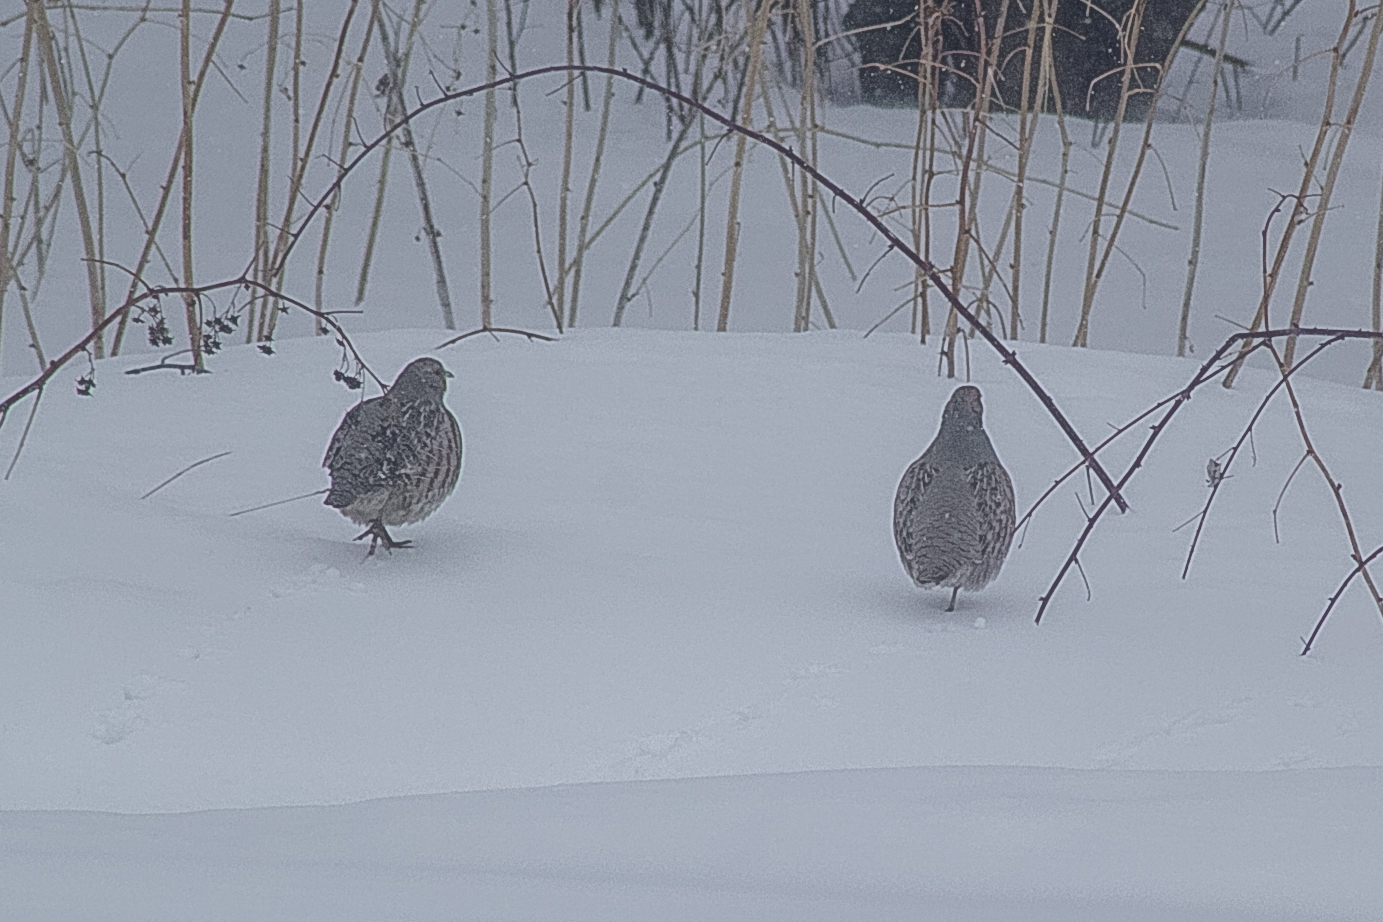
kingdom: Animalia
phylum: Chordata
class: Aves
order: Galliformes
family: Phasianidae
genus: Perdix
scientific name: Perdix perdix
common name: Grey partridge
